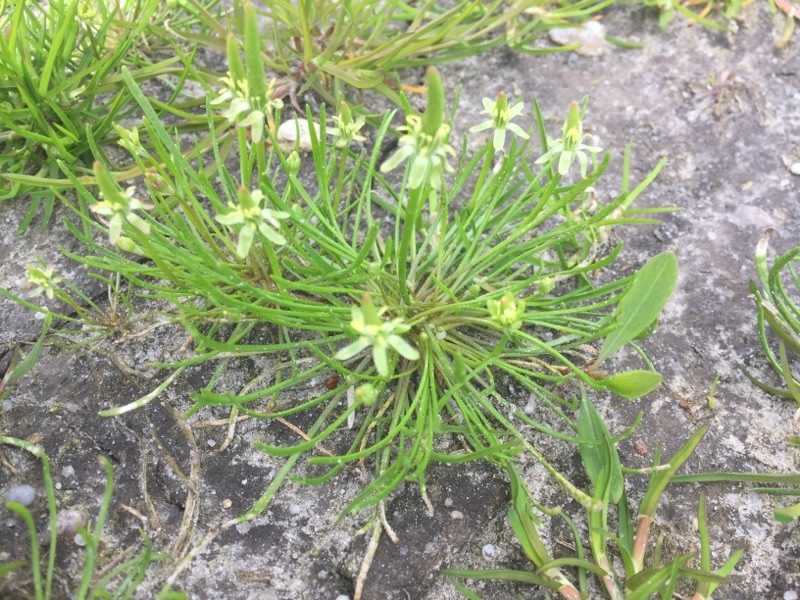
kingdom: Plantae
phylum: Tracheophyta
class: Magnoliopsida
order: Ranunculales
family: Ranunculaceae
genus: Myosurus
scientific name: Myosurus minimus
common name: Mousetail
